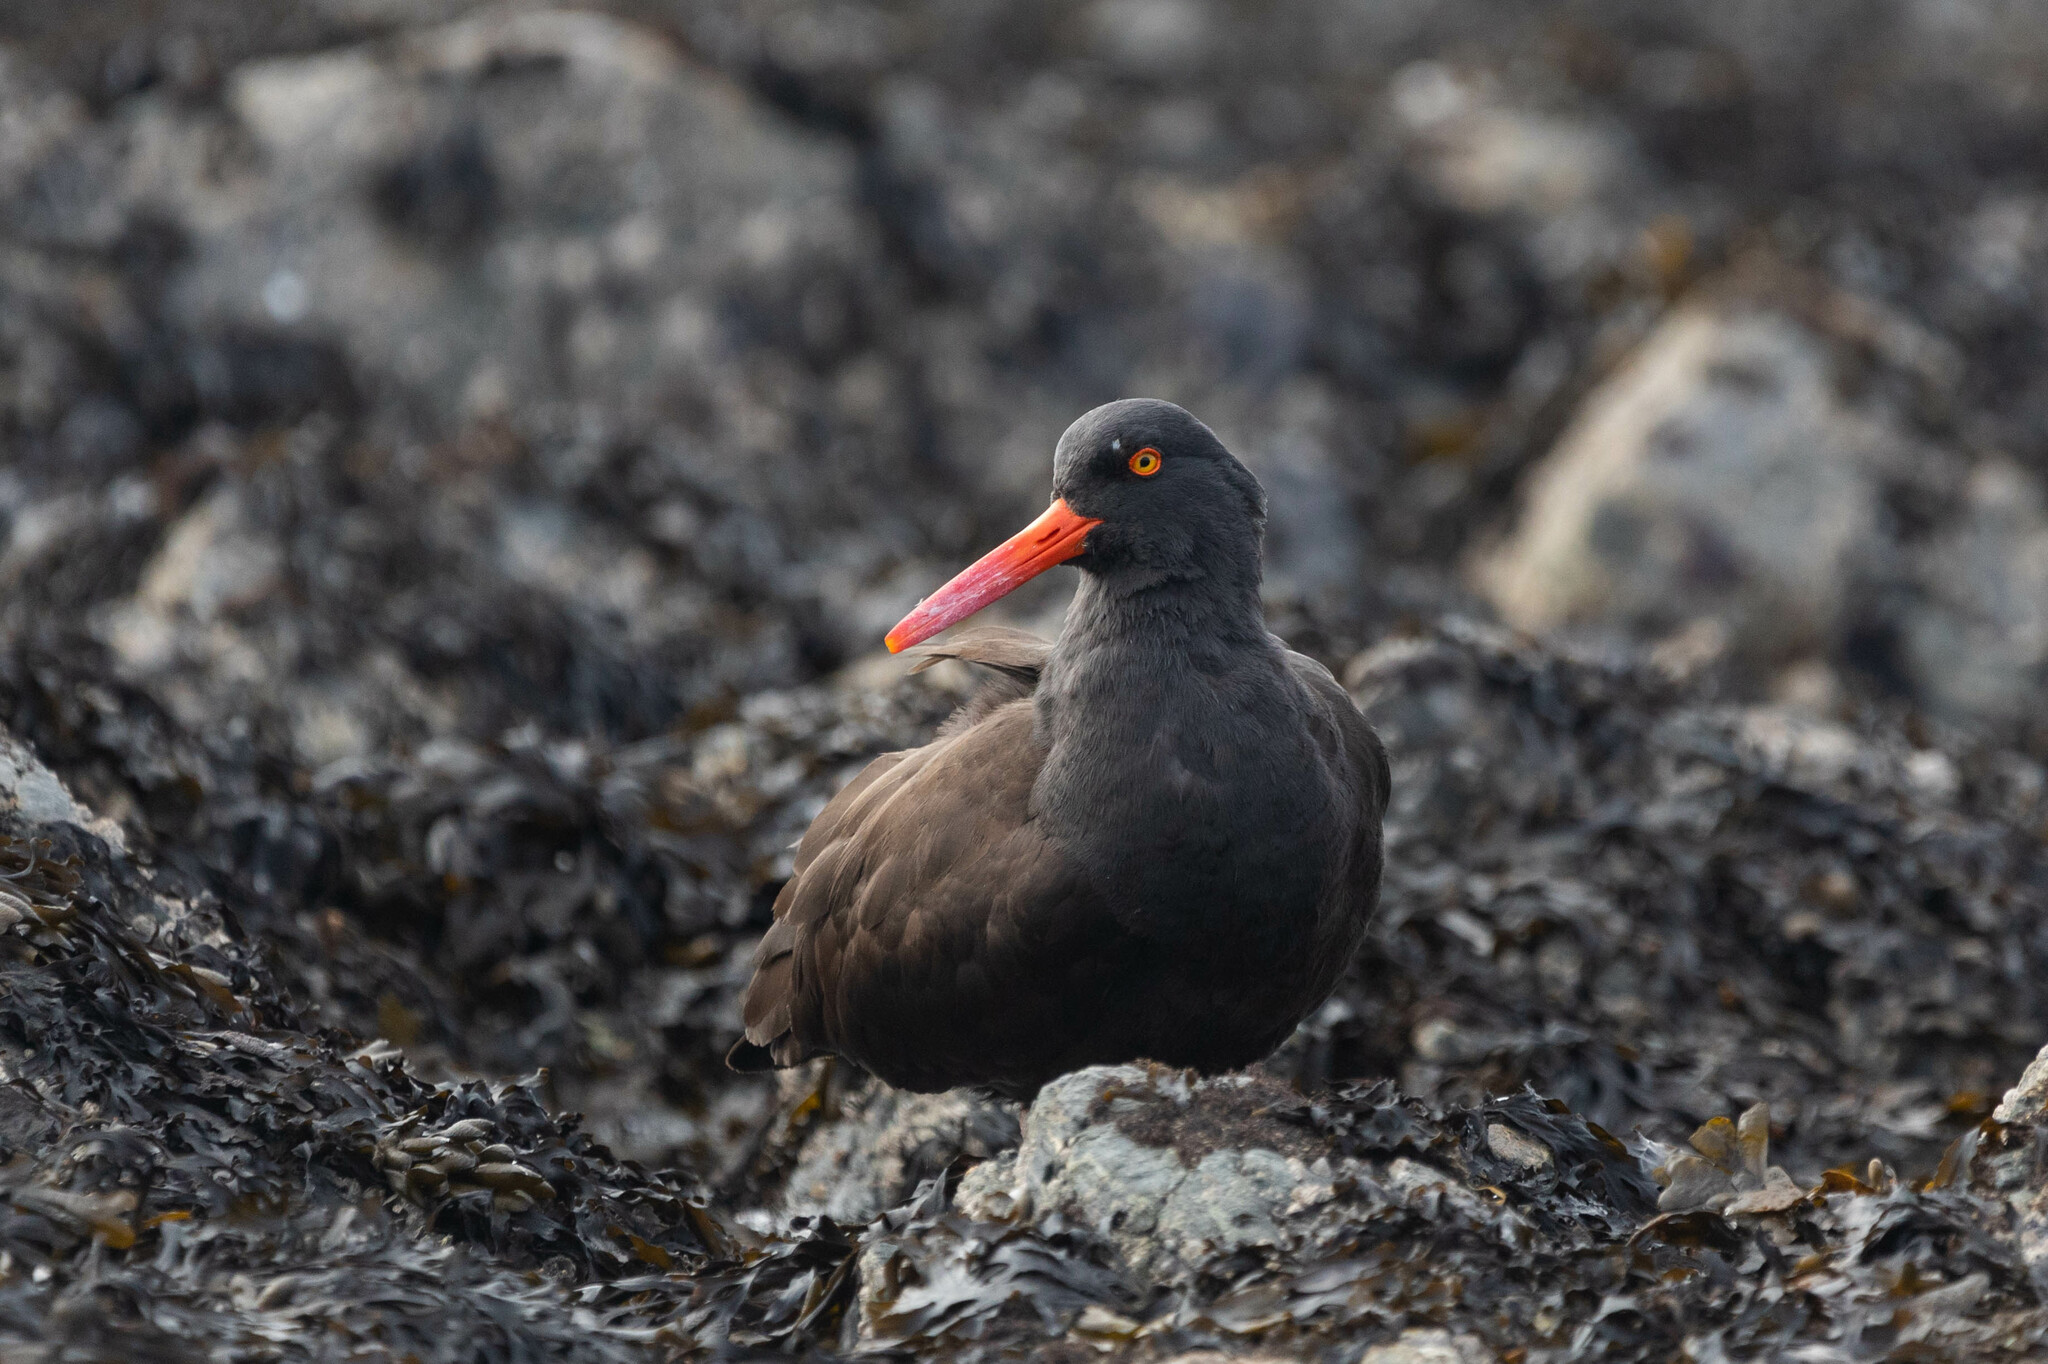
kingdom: Animalia
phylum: Chordata
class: Aves
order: Charadriiformes
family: Haematopodidae
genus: Haematopus
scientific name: Haematopus bachmani
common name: Black oystercatcher
